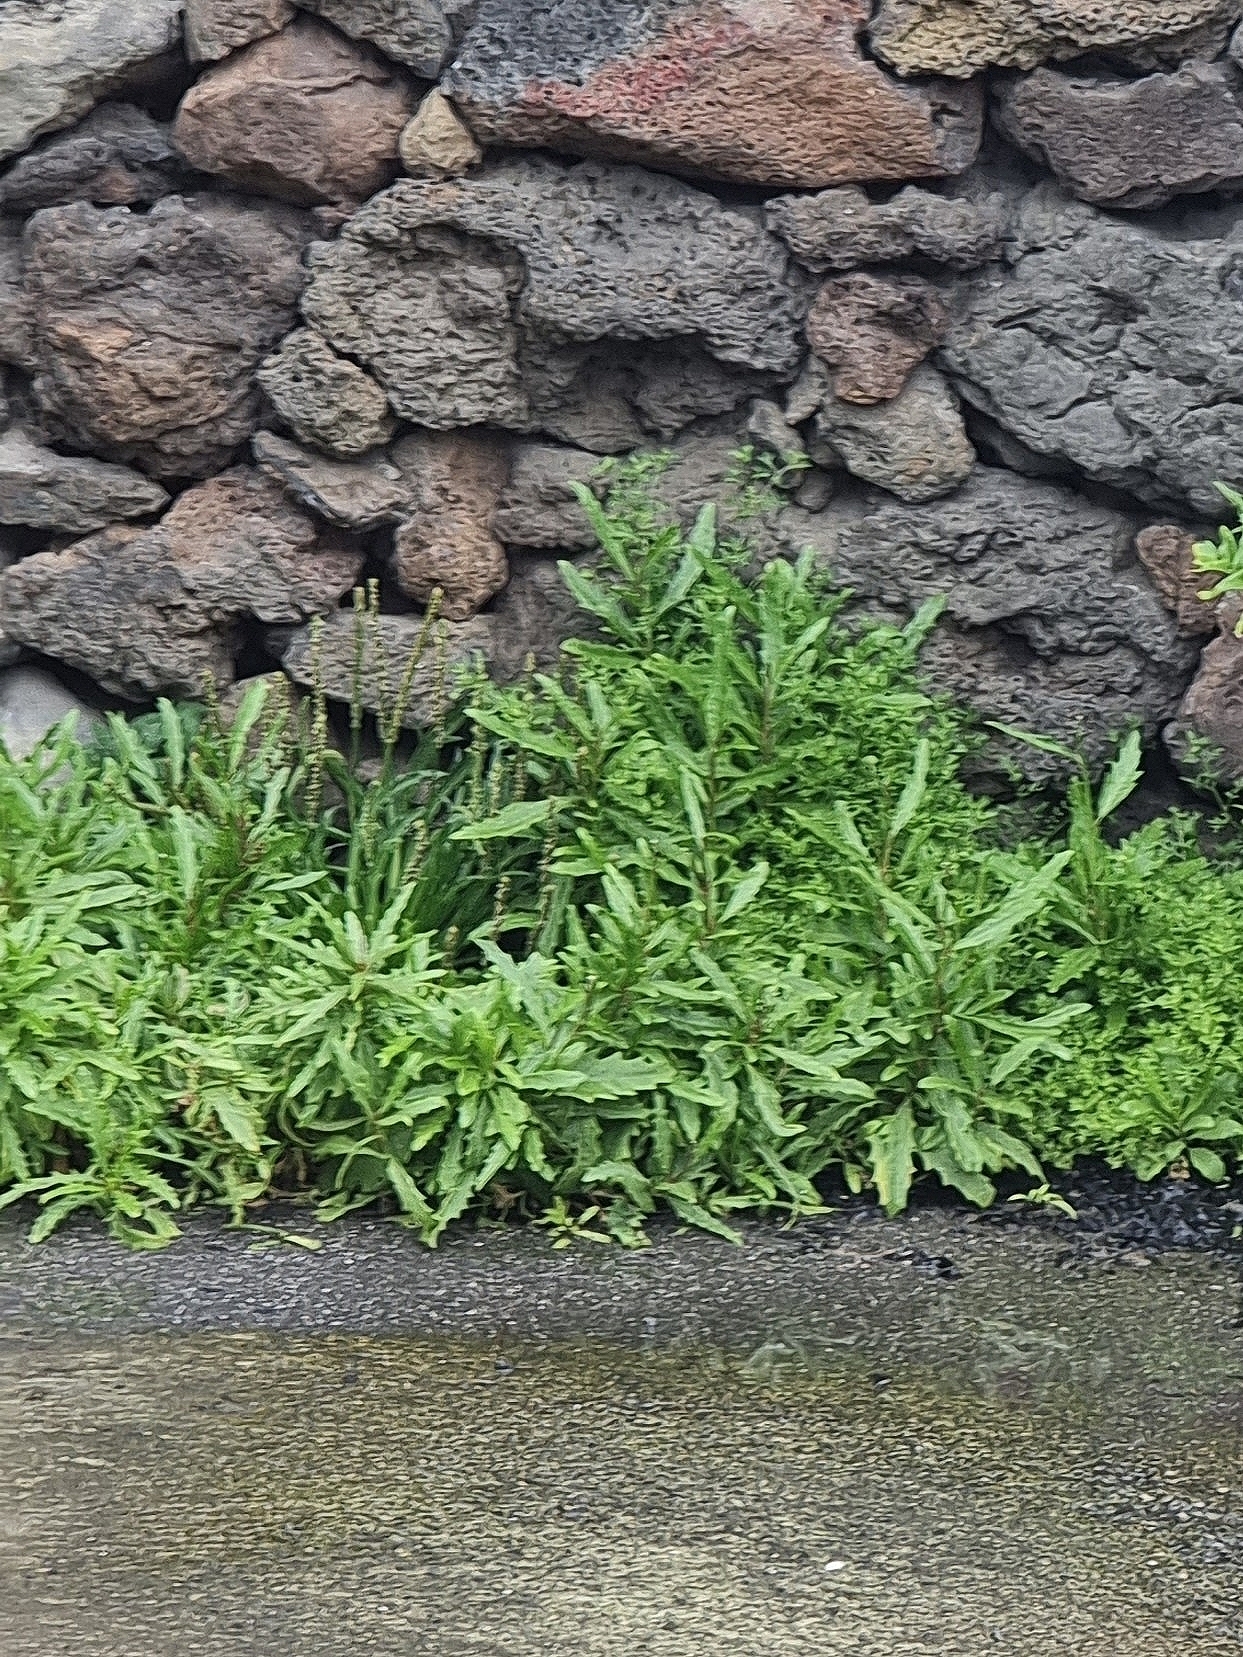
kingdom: Plantae
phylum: Tracheophyta
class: Magnoliopsida
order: Caryophyllales
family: Amaranthaceae
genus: Dysphania
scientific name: Dysphania ambrosioides
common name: Wormseed
